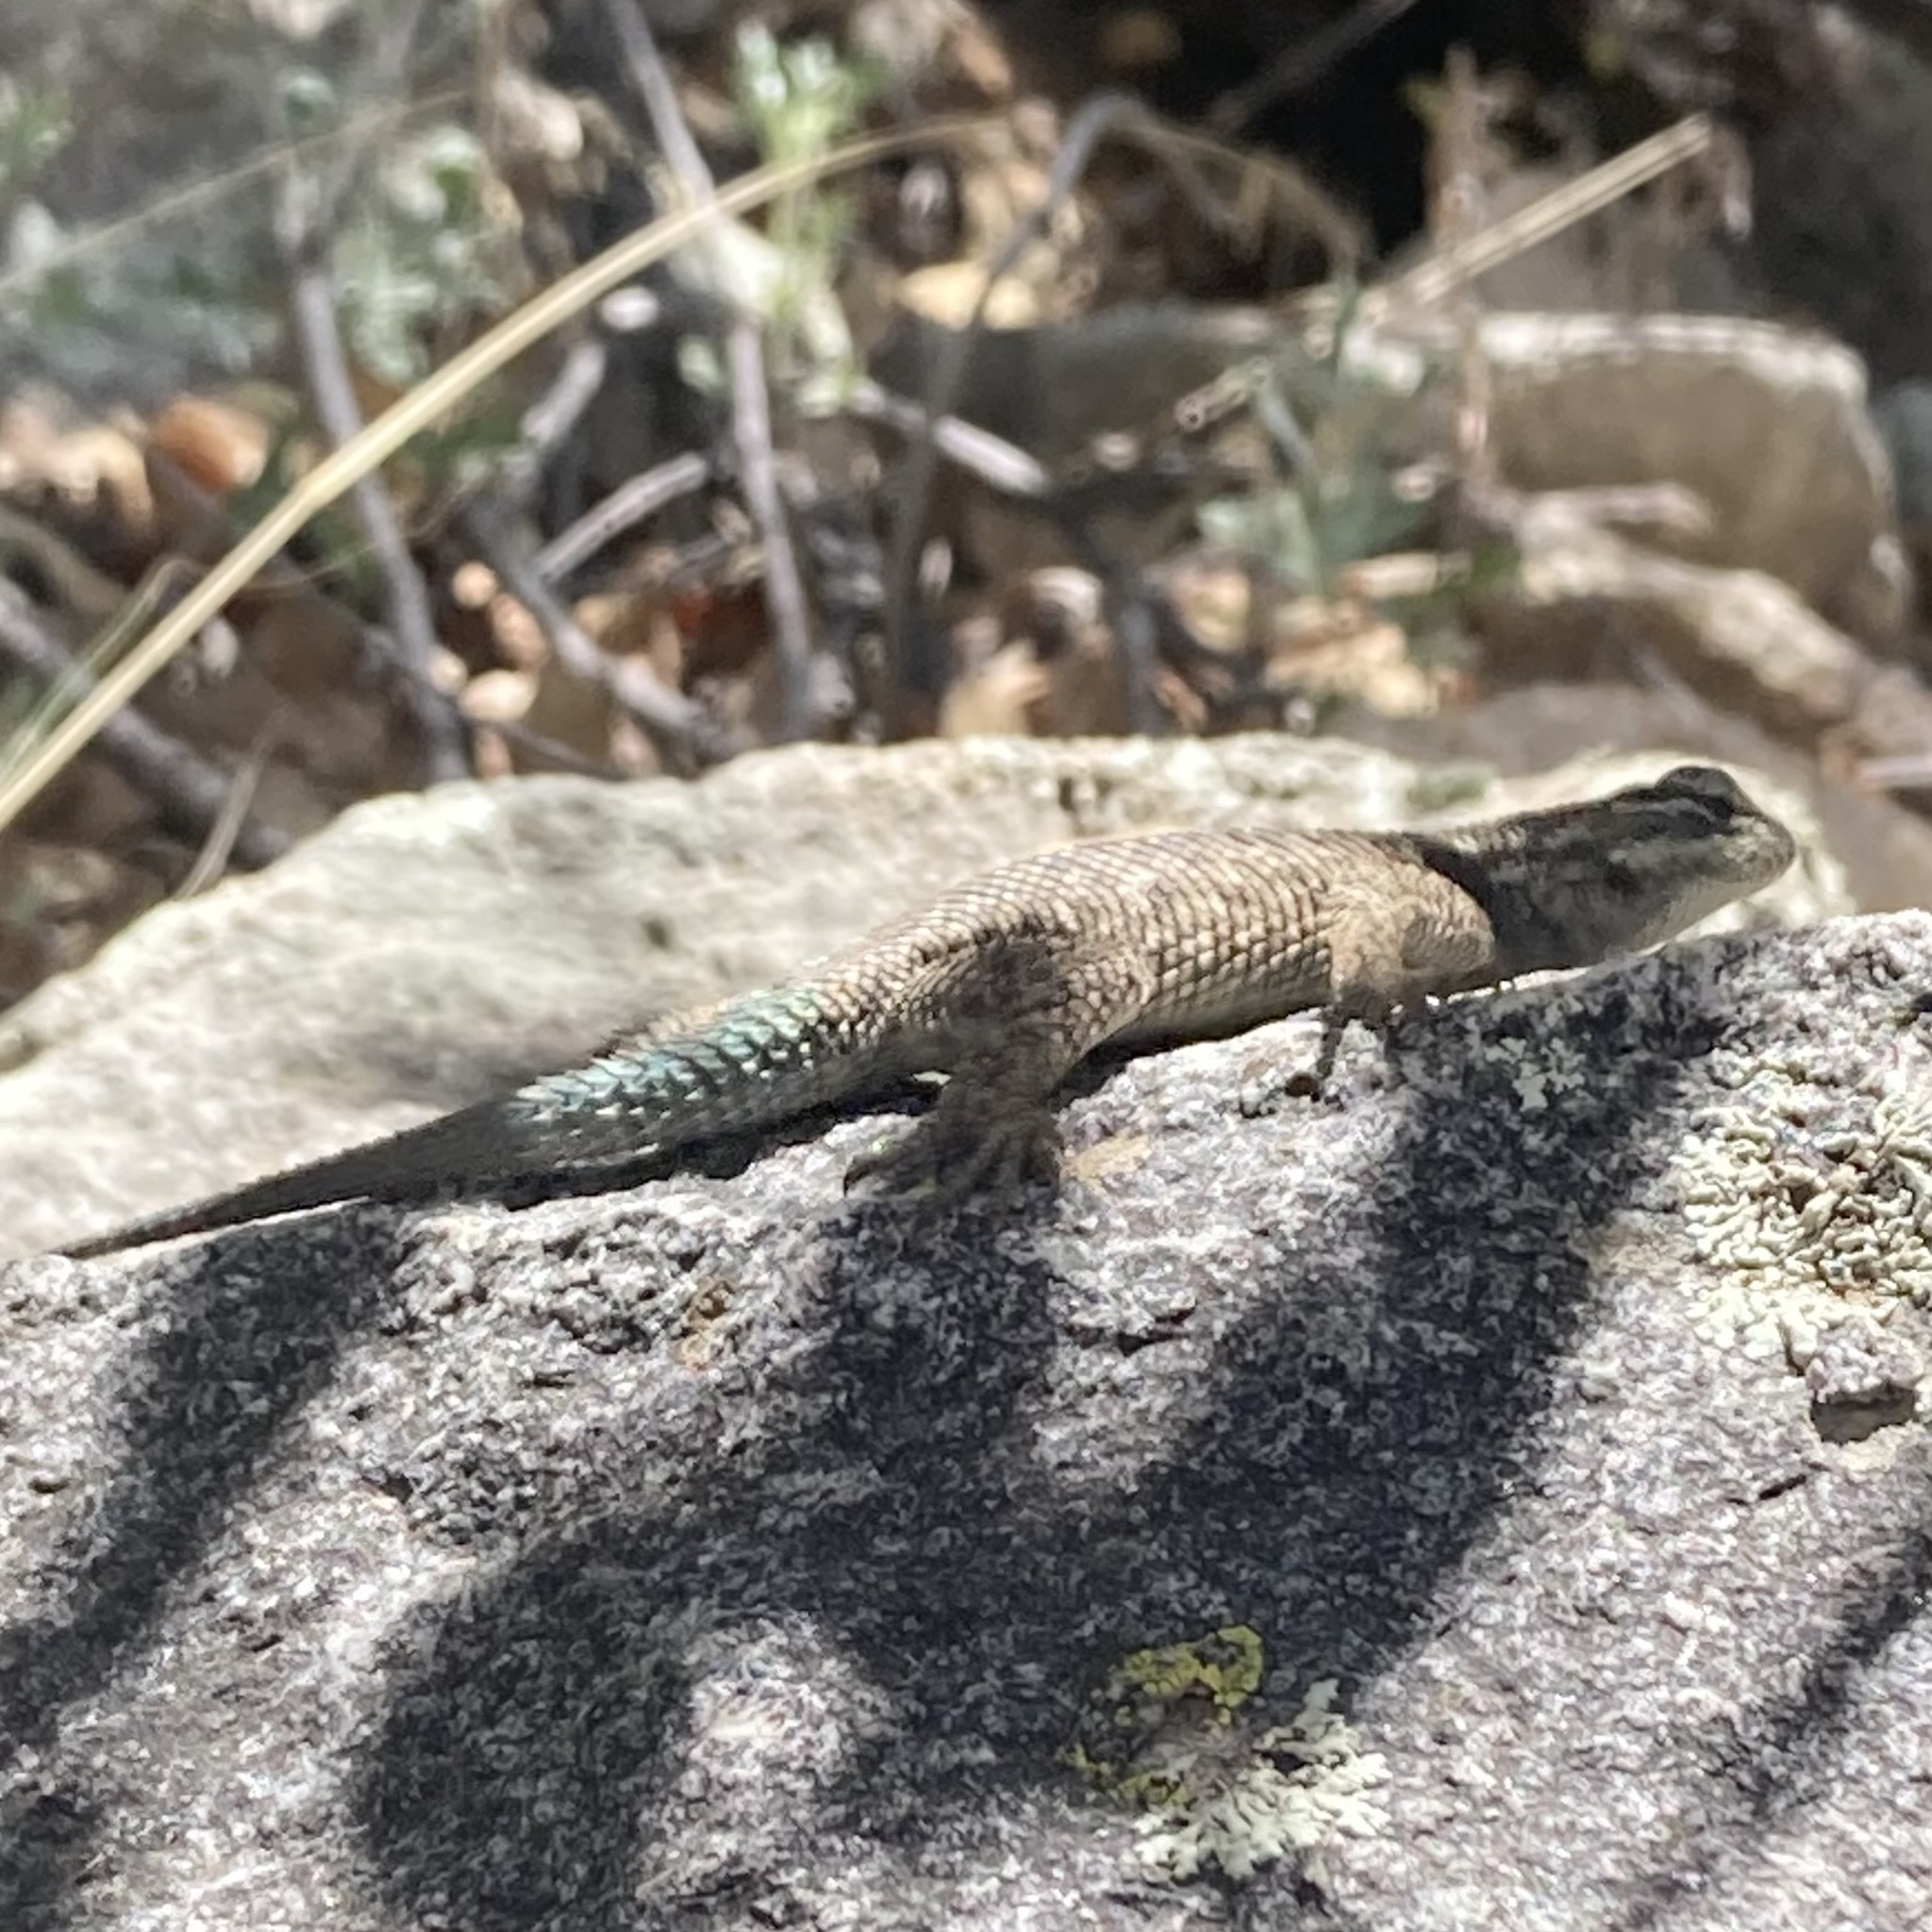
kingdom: Animalia
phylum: Chordata
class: Squamata
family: Phrynosomatidae
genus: Sceloporus
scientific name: Sceloporus jarrovii
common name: Yarrow's spiny lizard
